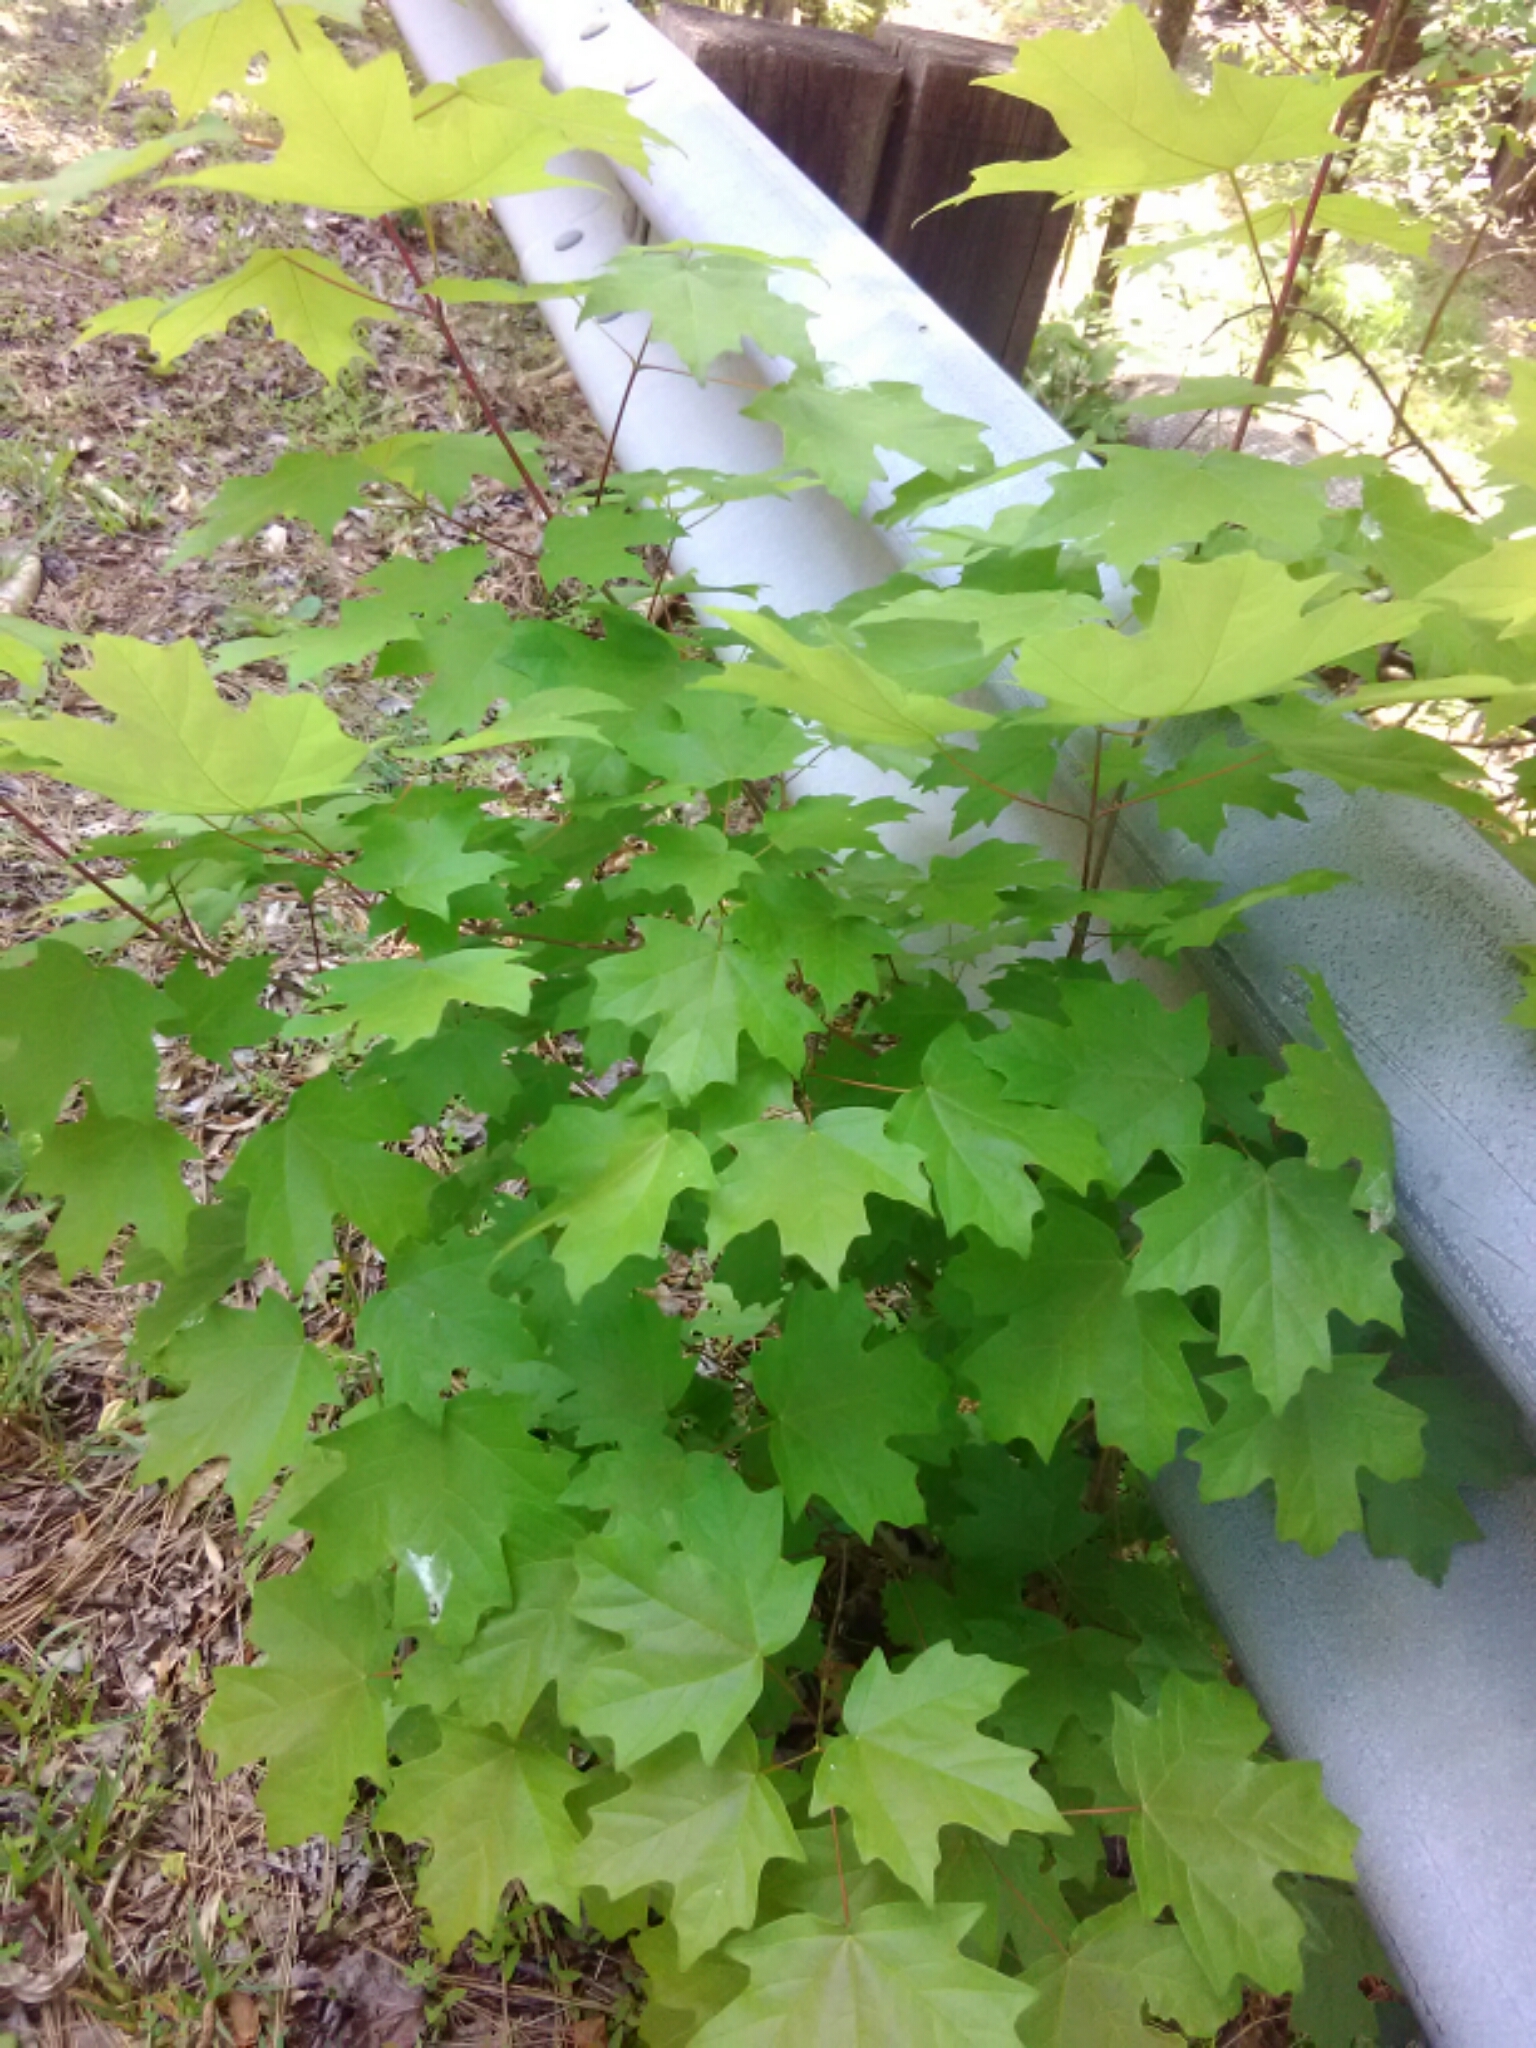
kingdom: Plantae
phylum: Tracheophyta
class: Magnoliopsida
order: Sapindales
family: Sapindaceae
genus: Acer
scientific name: Acer floridanum
